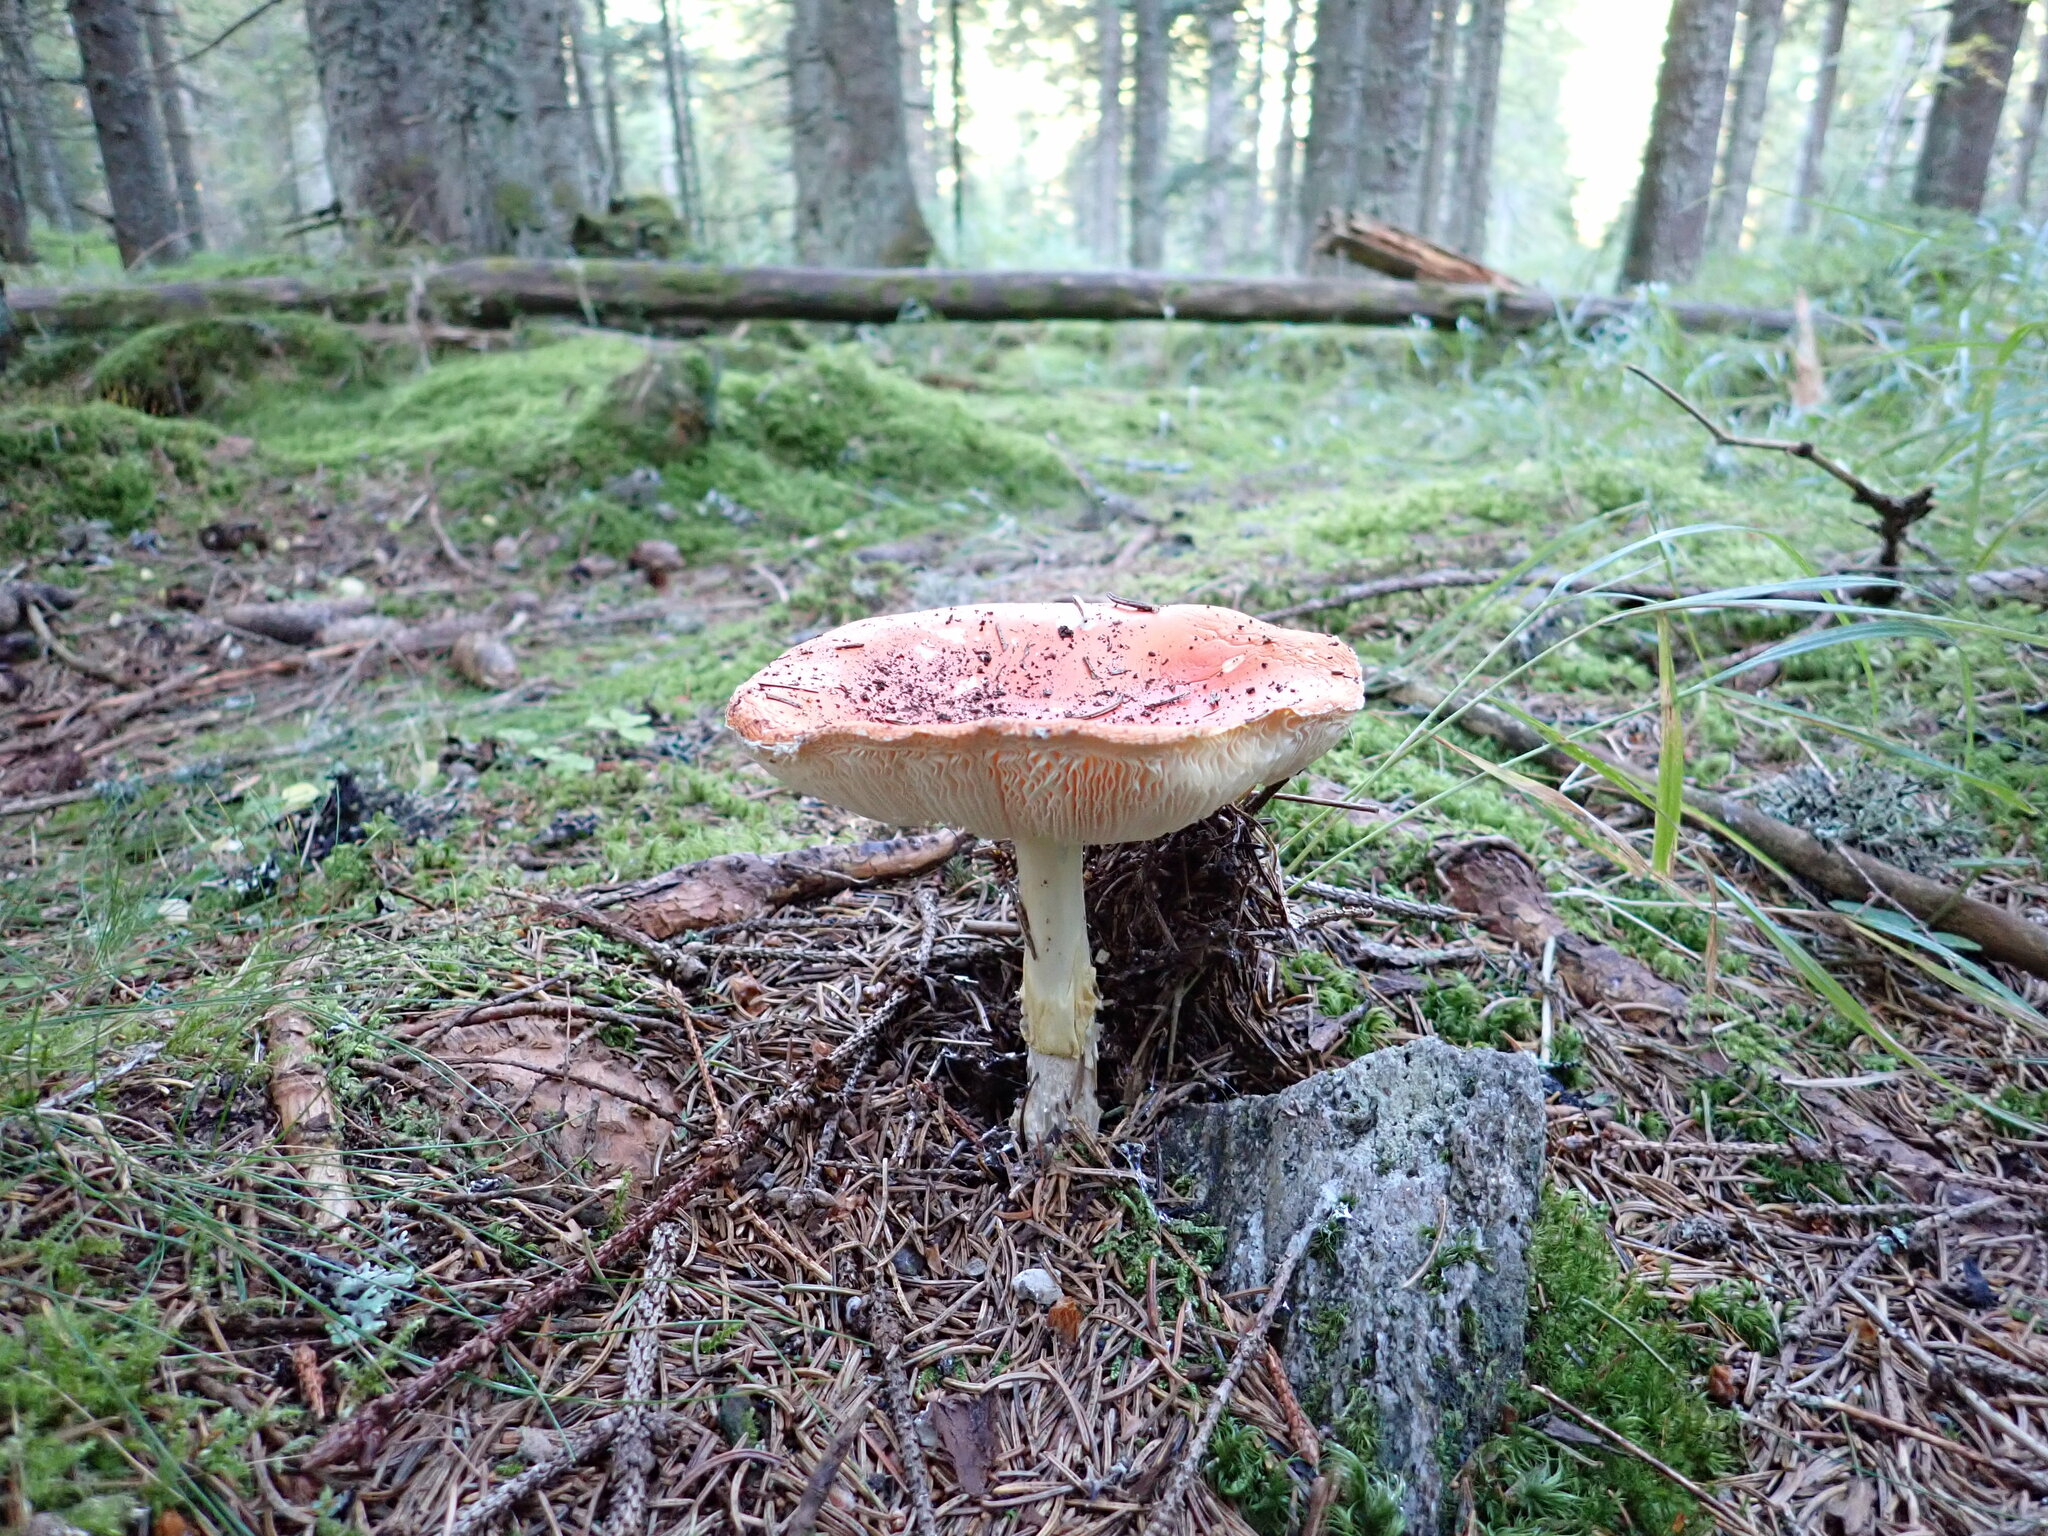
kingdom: Fungi
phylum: Basidiomycota
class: Agaricomycetes
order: Agaricales
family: Amanitaceae
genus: Amanita
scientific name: Amanita muscaria
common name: Fly agaric
